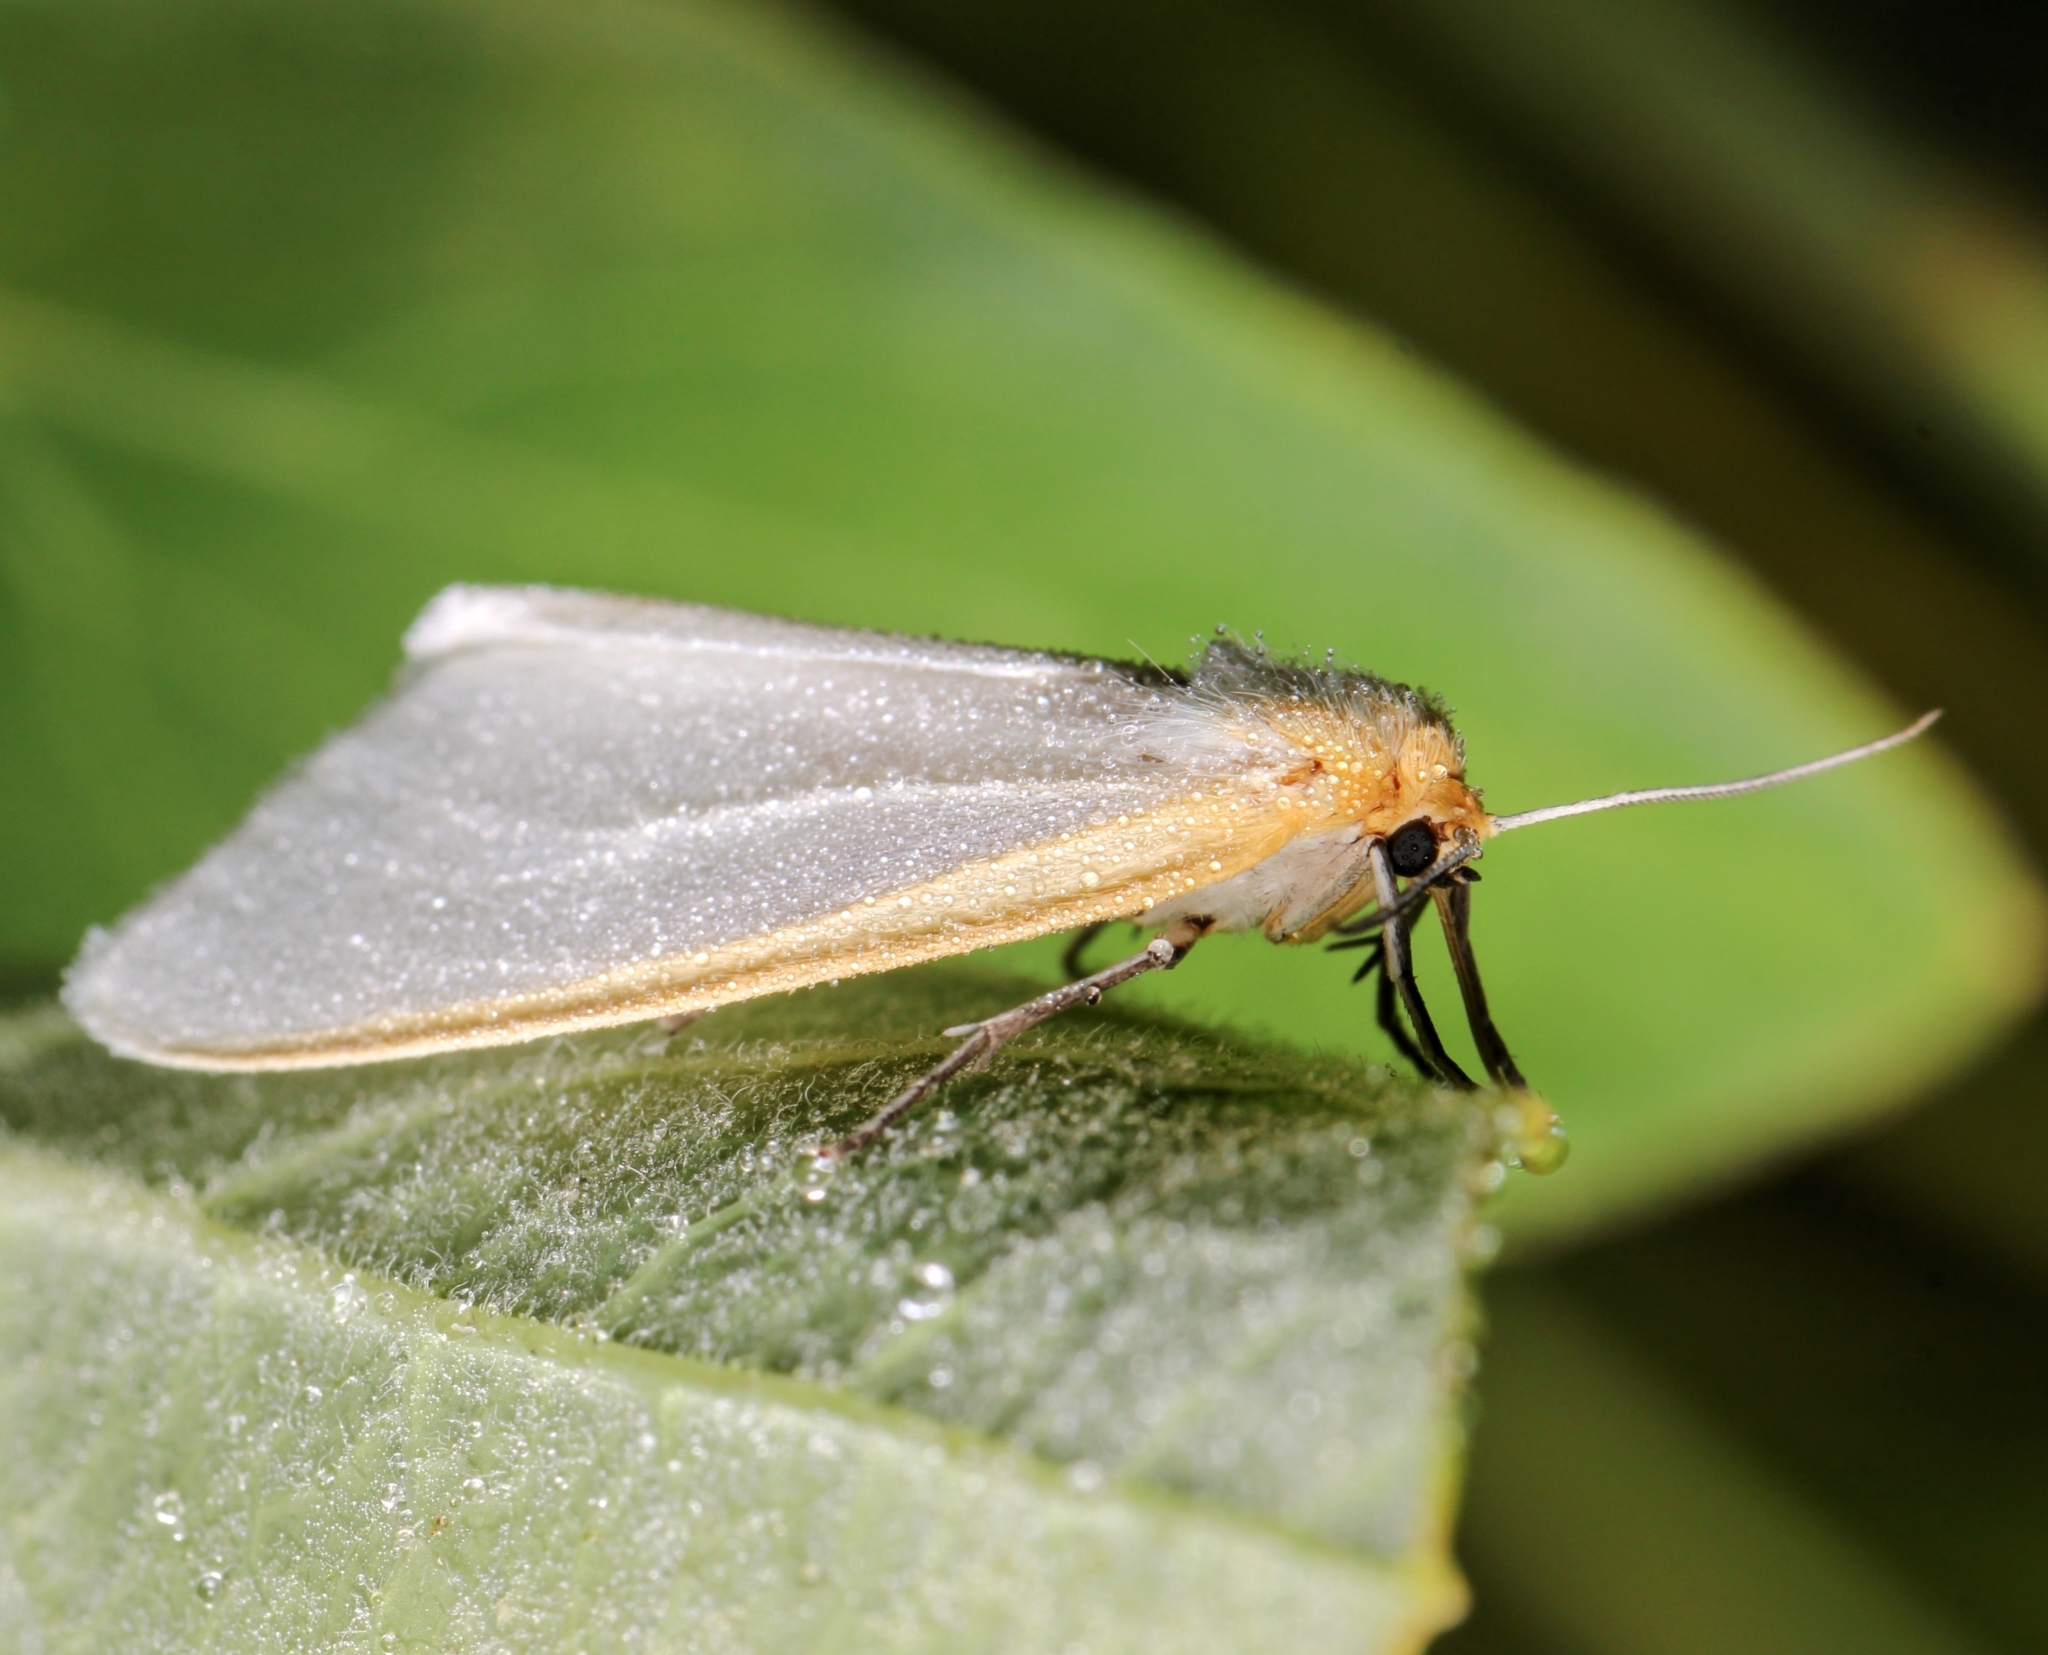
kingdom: Animalia
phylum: Arthropoda
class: Insecta
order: Lepidoptera
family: Erebidae
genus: Cycnia
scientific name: Cycnia tenera
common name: Delicate cycnia moth
